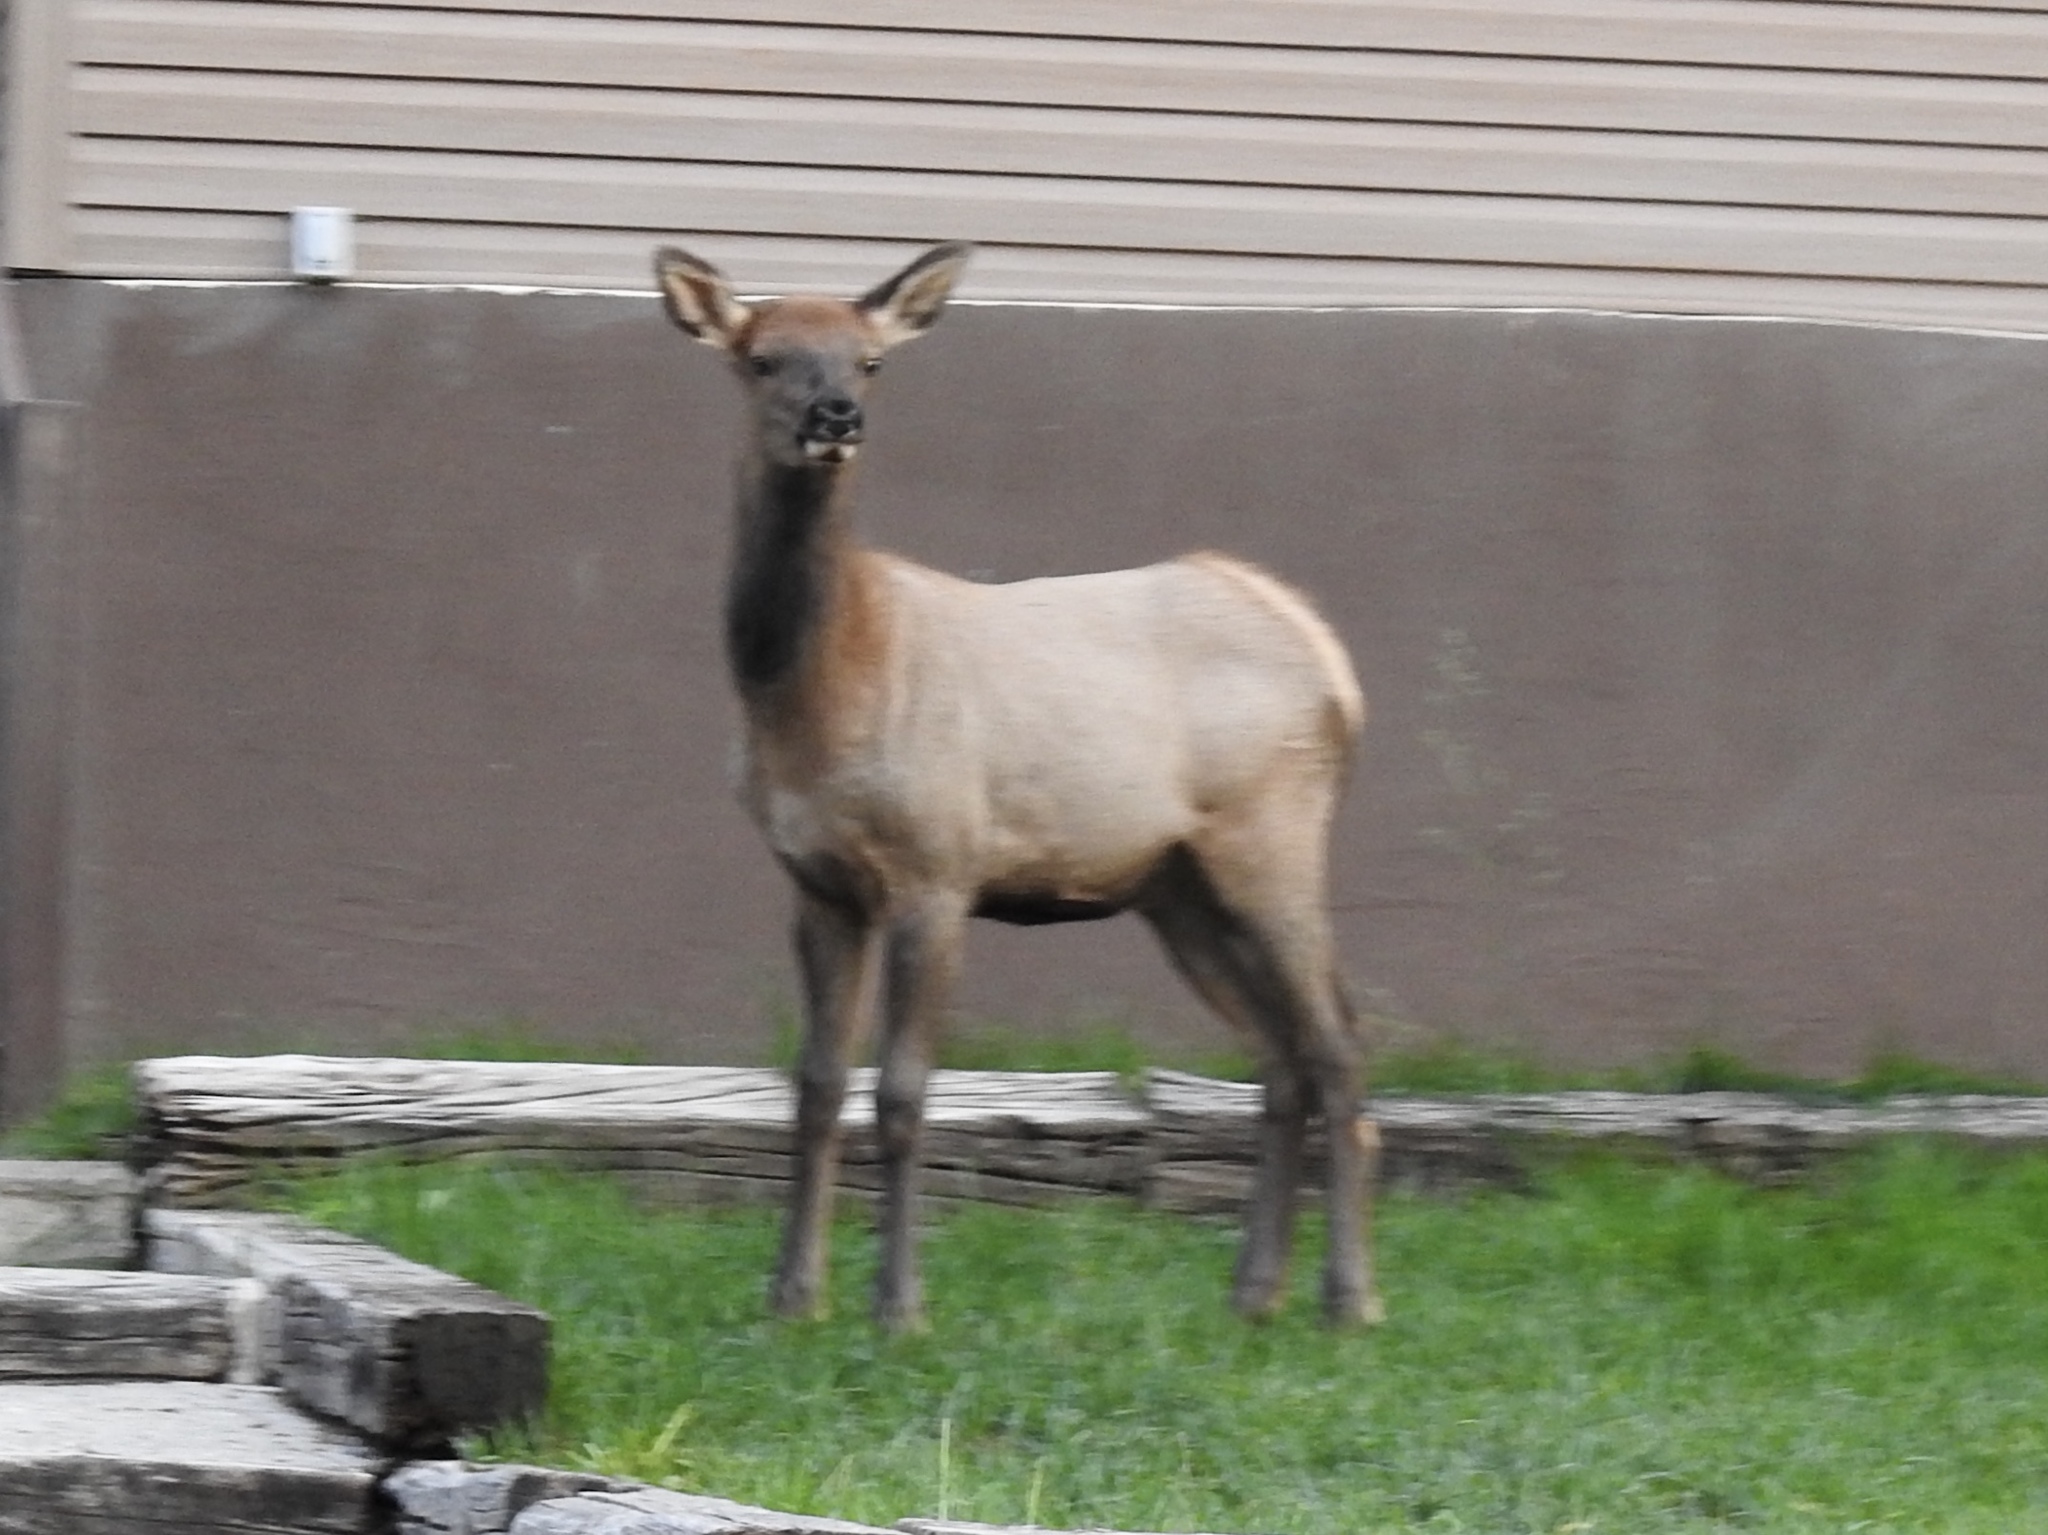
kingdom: Animalia
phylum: Chordata
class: Mammalia
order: Artiodactyla
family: Cervidae
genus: Cervus
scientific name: Cervus elaphus
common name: Red deer
